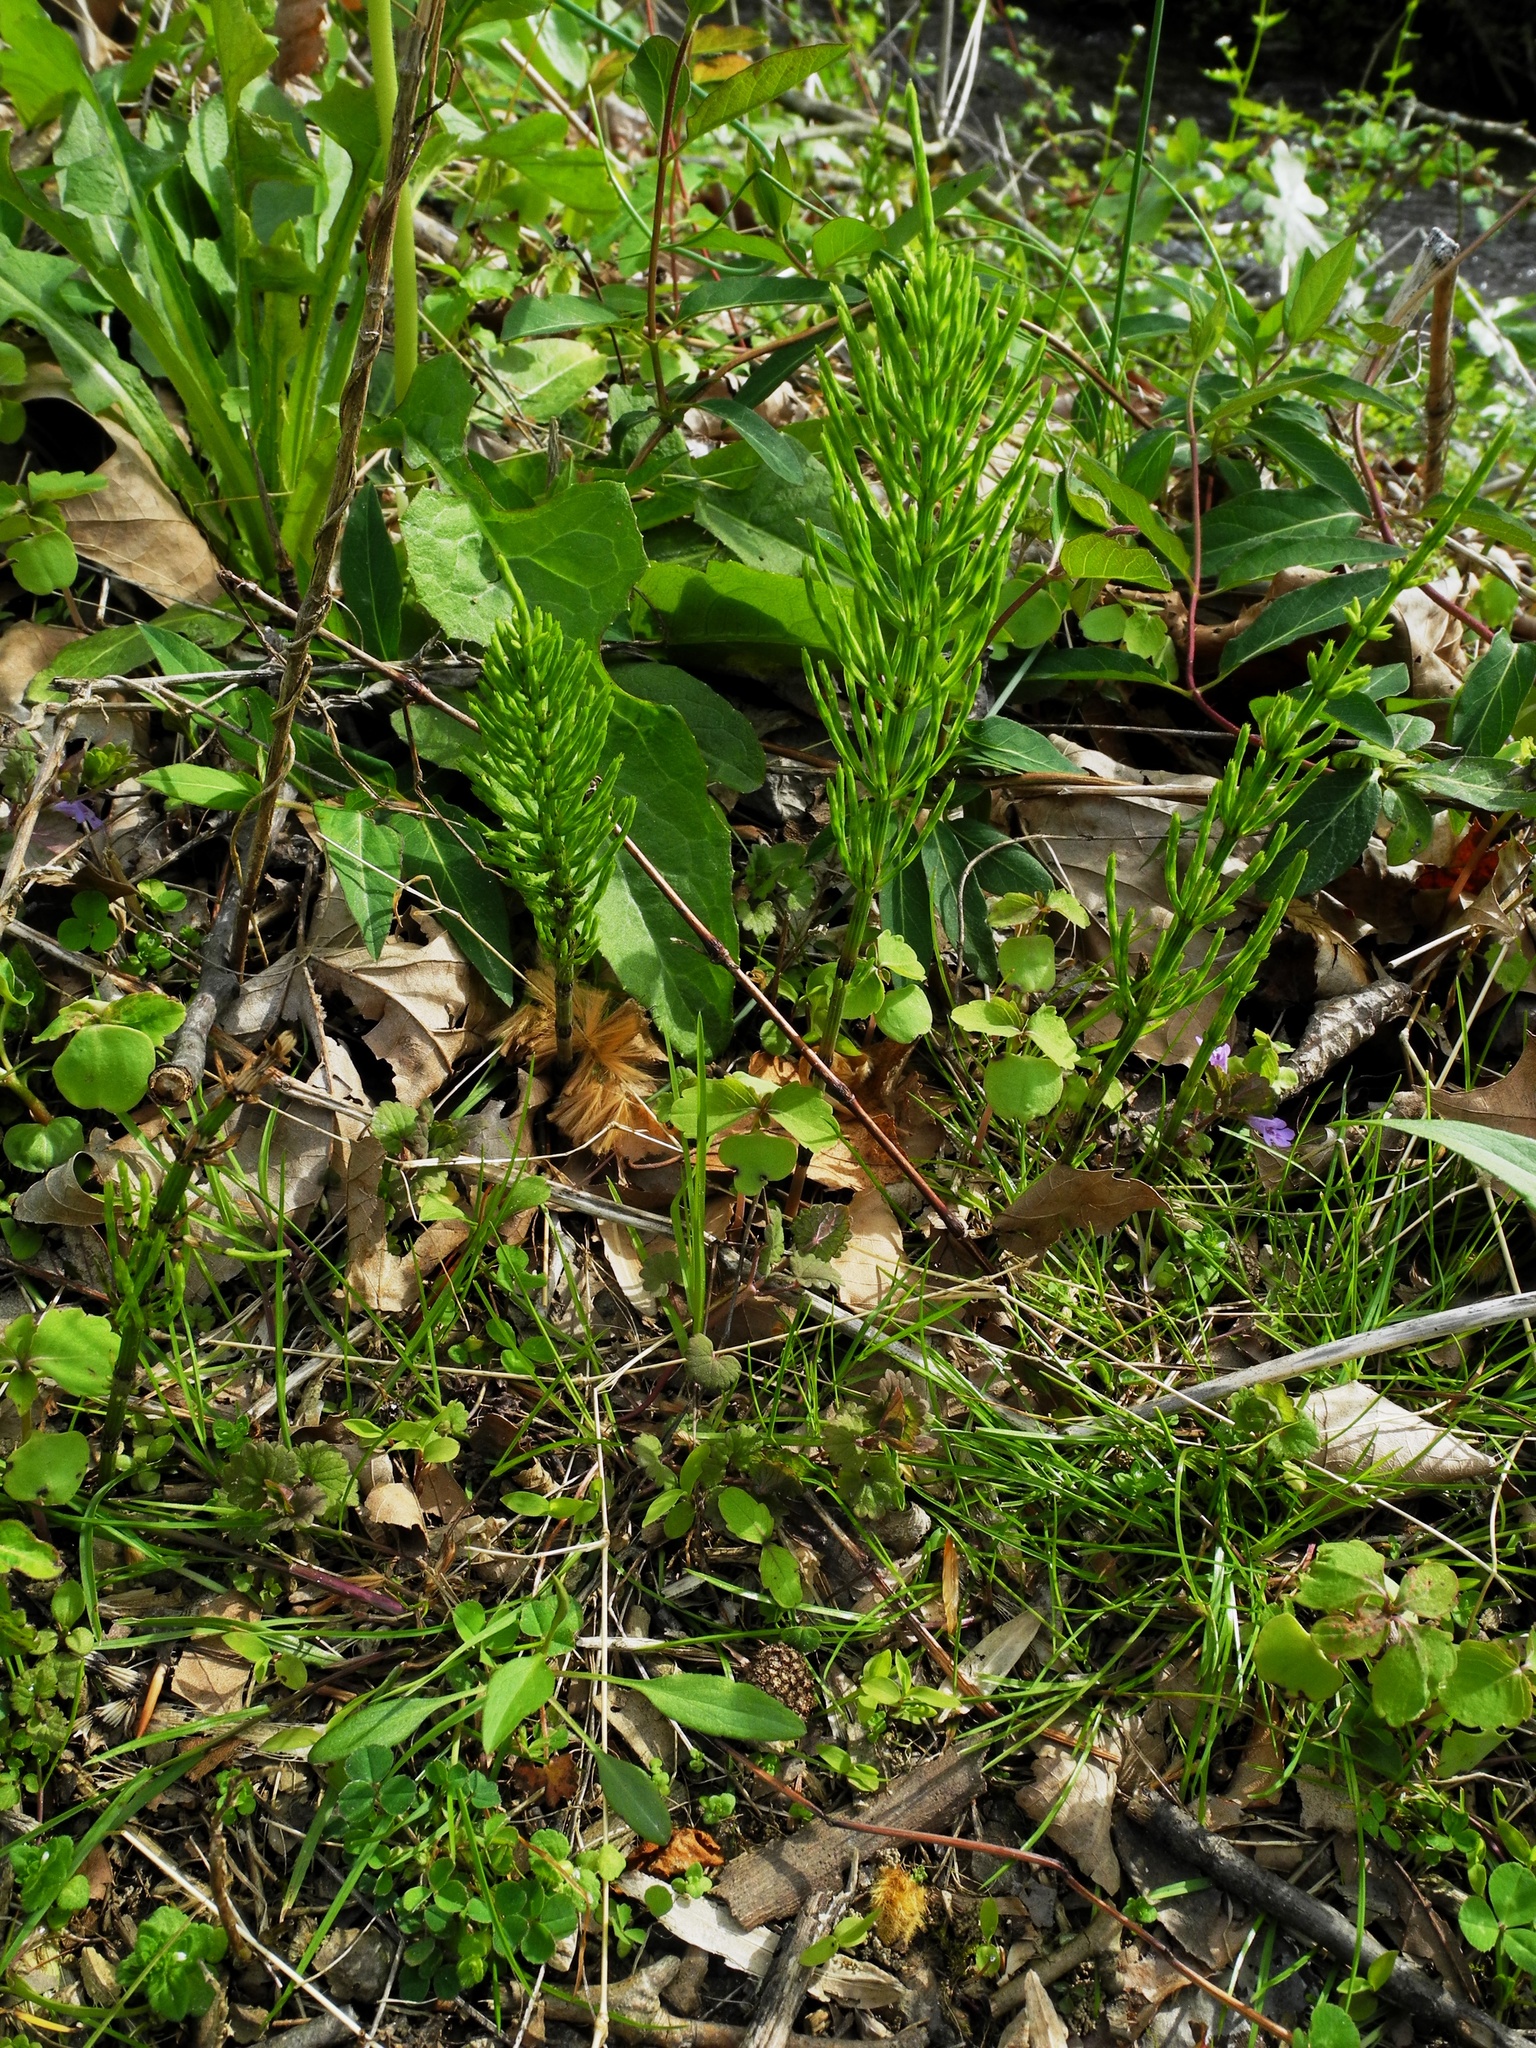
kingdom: Plantae
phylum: Tracheophyta
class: Polypodiopsida
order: Equisetales
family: Equisetaceae
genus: Equisetum
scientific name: Equisetum arvense
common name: Field horsetail
